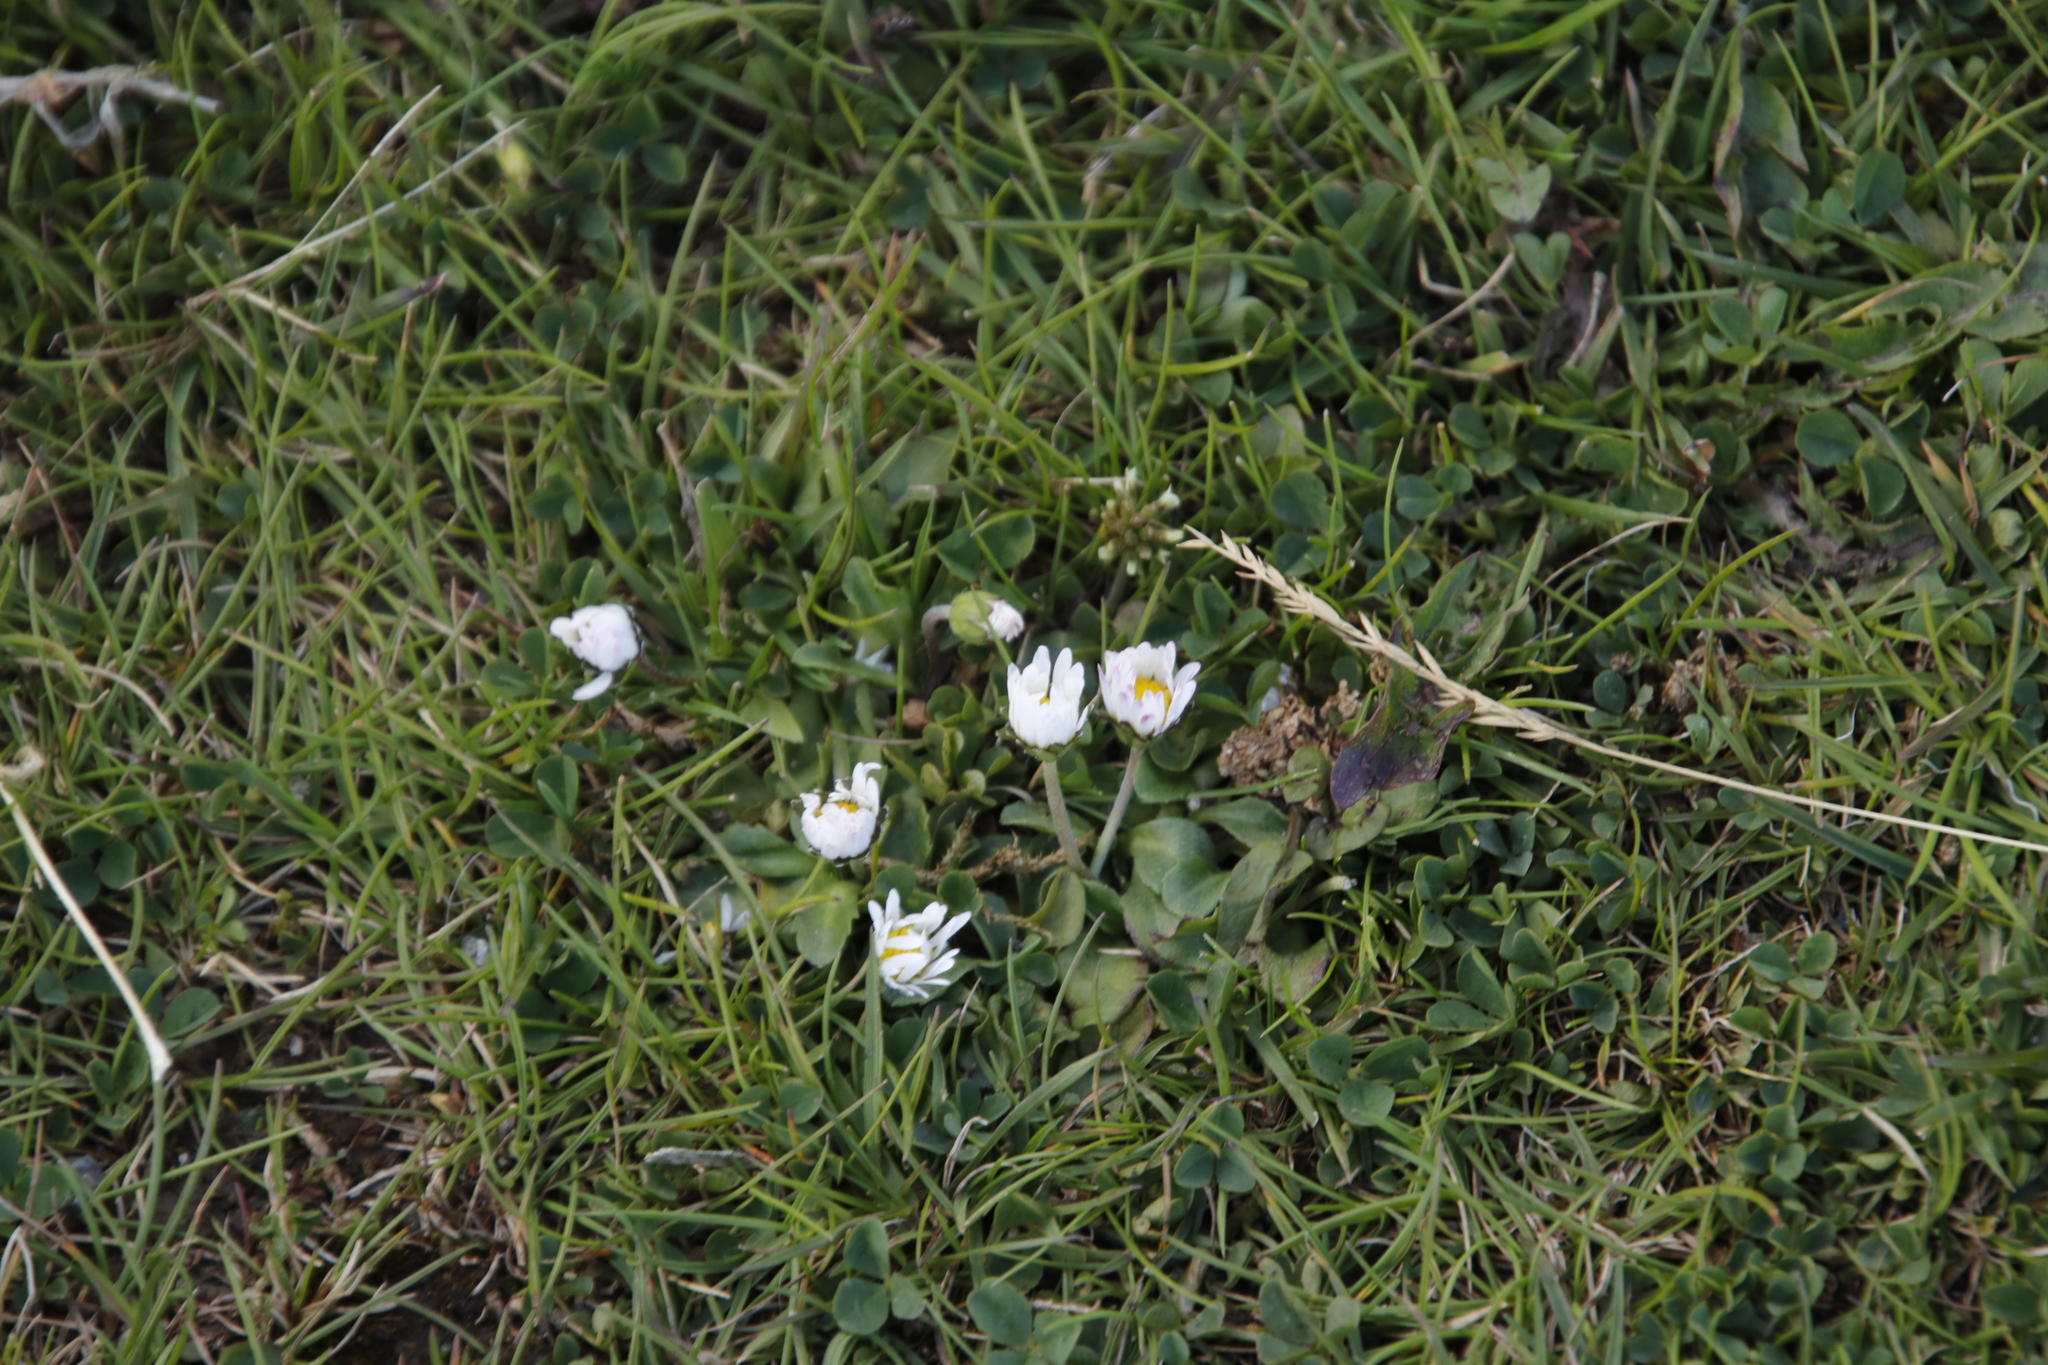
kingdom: Plantae
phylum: Tracheophyta
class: Magnoliopsida
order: Asterales
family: Asteraceae
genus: Bellis
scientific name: Bellis perennis
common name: Lawndaisy
